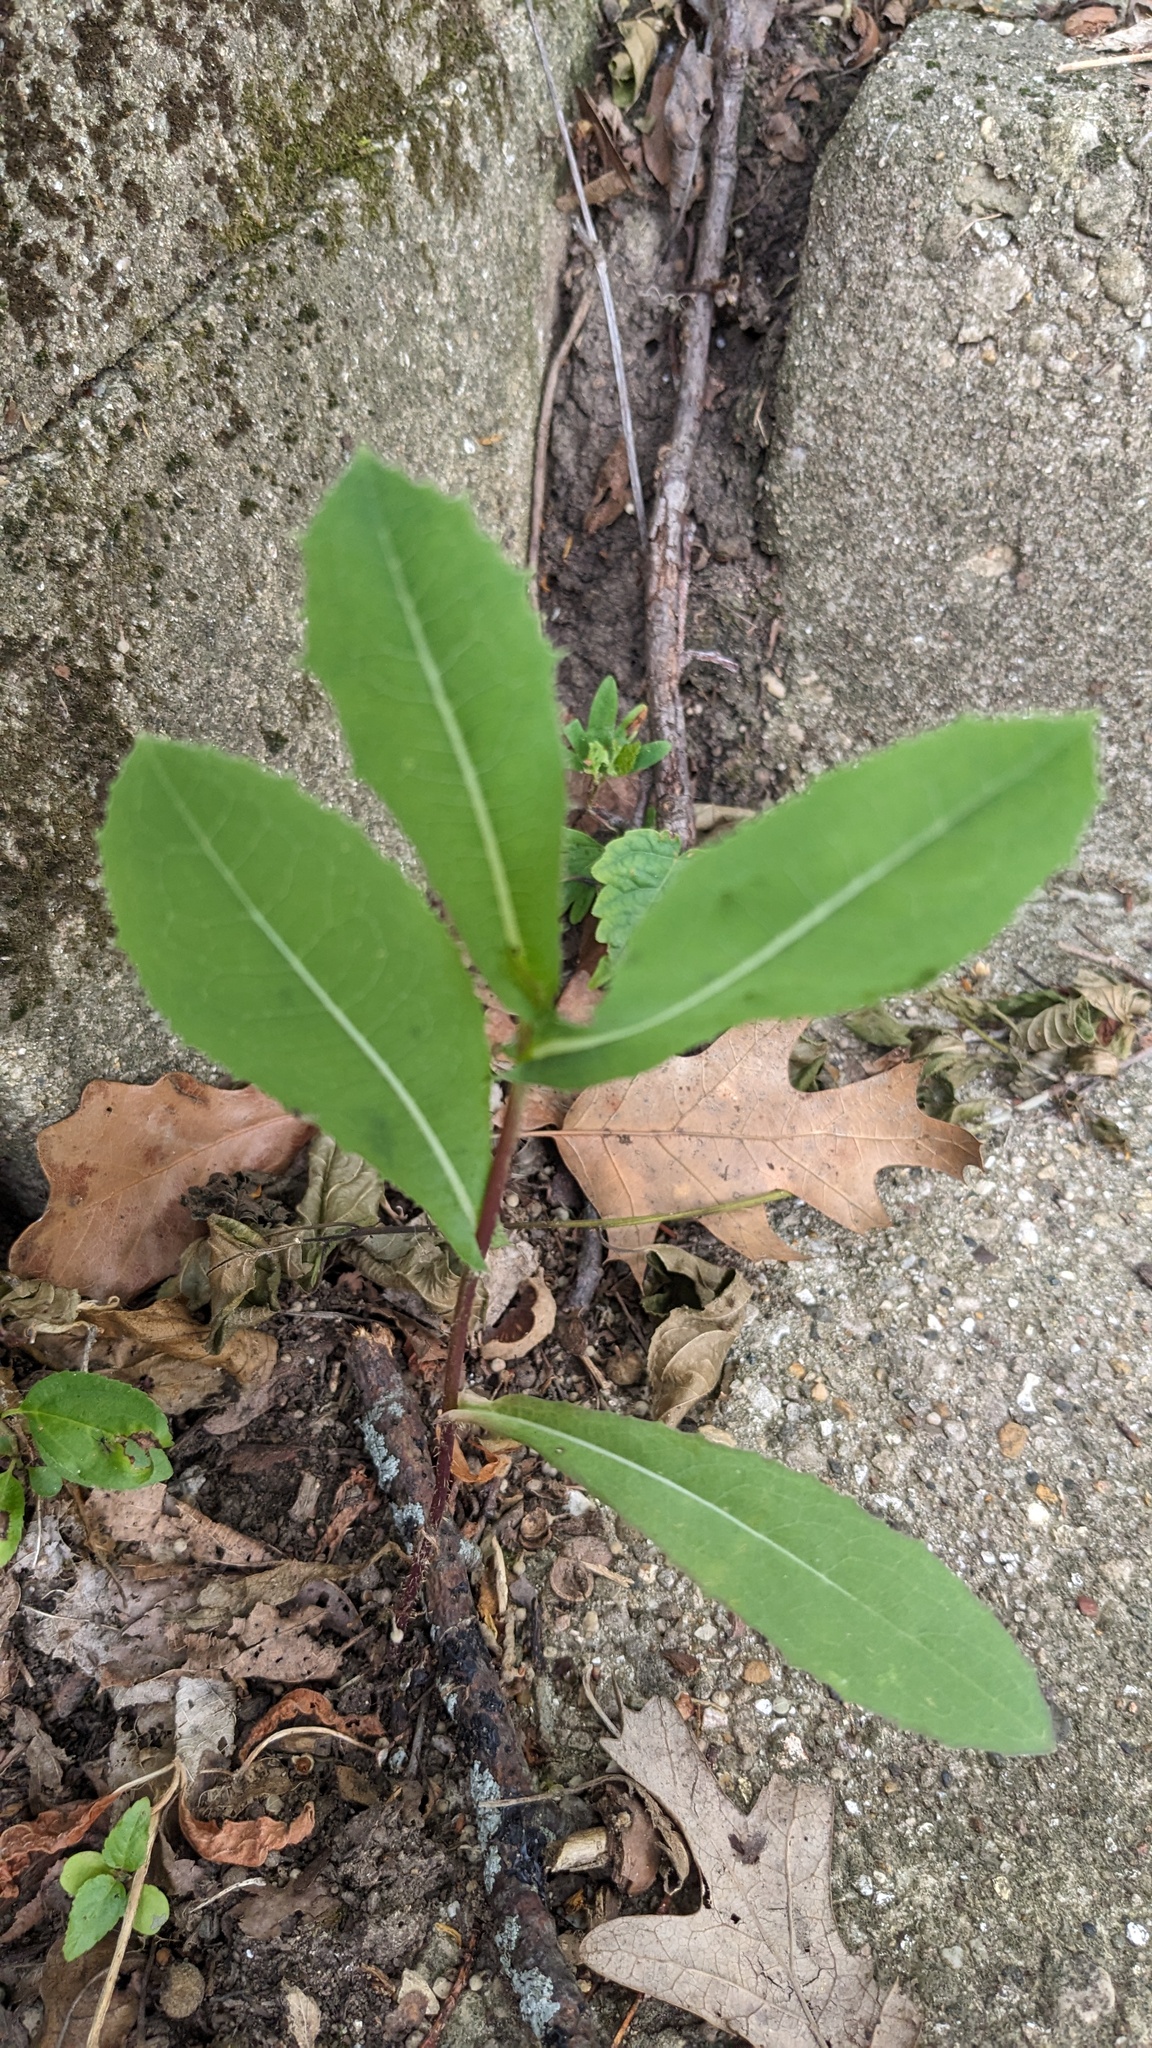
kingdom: Plantae
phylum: Tracheophyta
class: Magnoliopsida
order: Asterales
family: Asteraceae
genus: Lactuca
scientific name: Lactuca serriola
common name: Prickly lettuce
